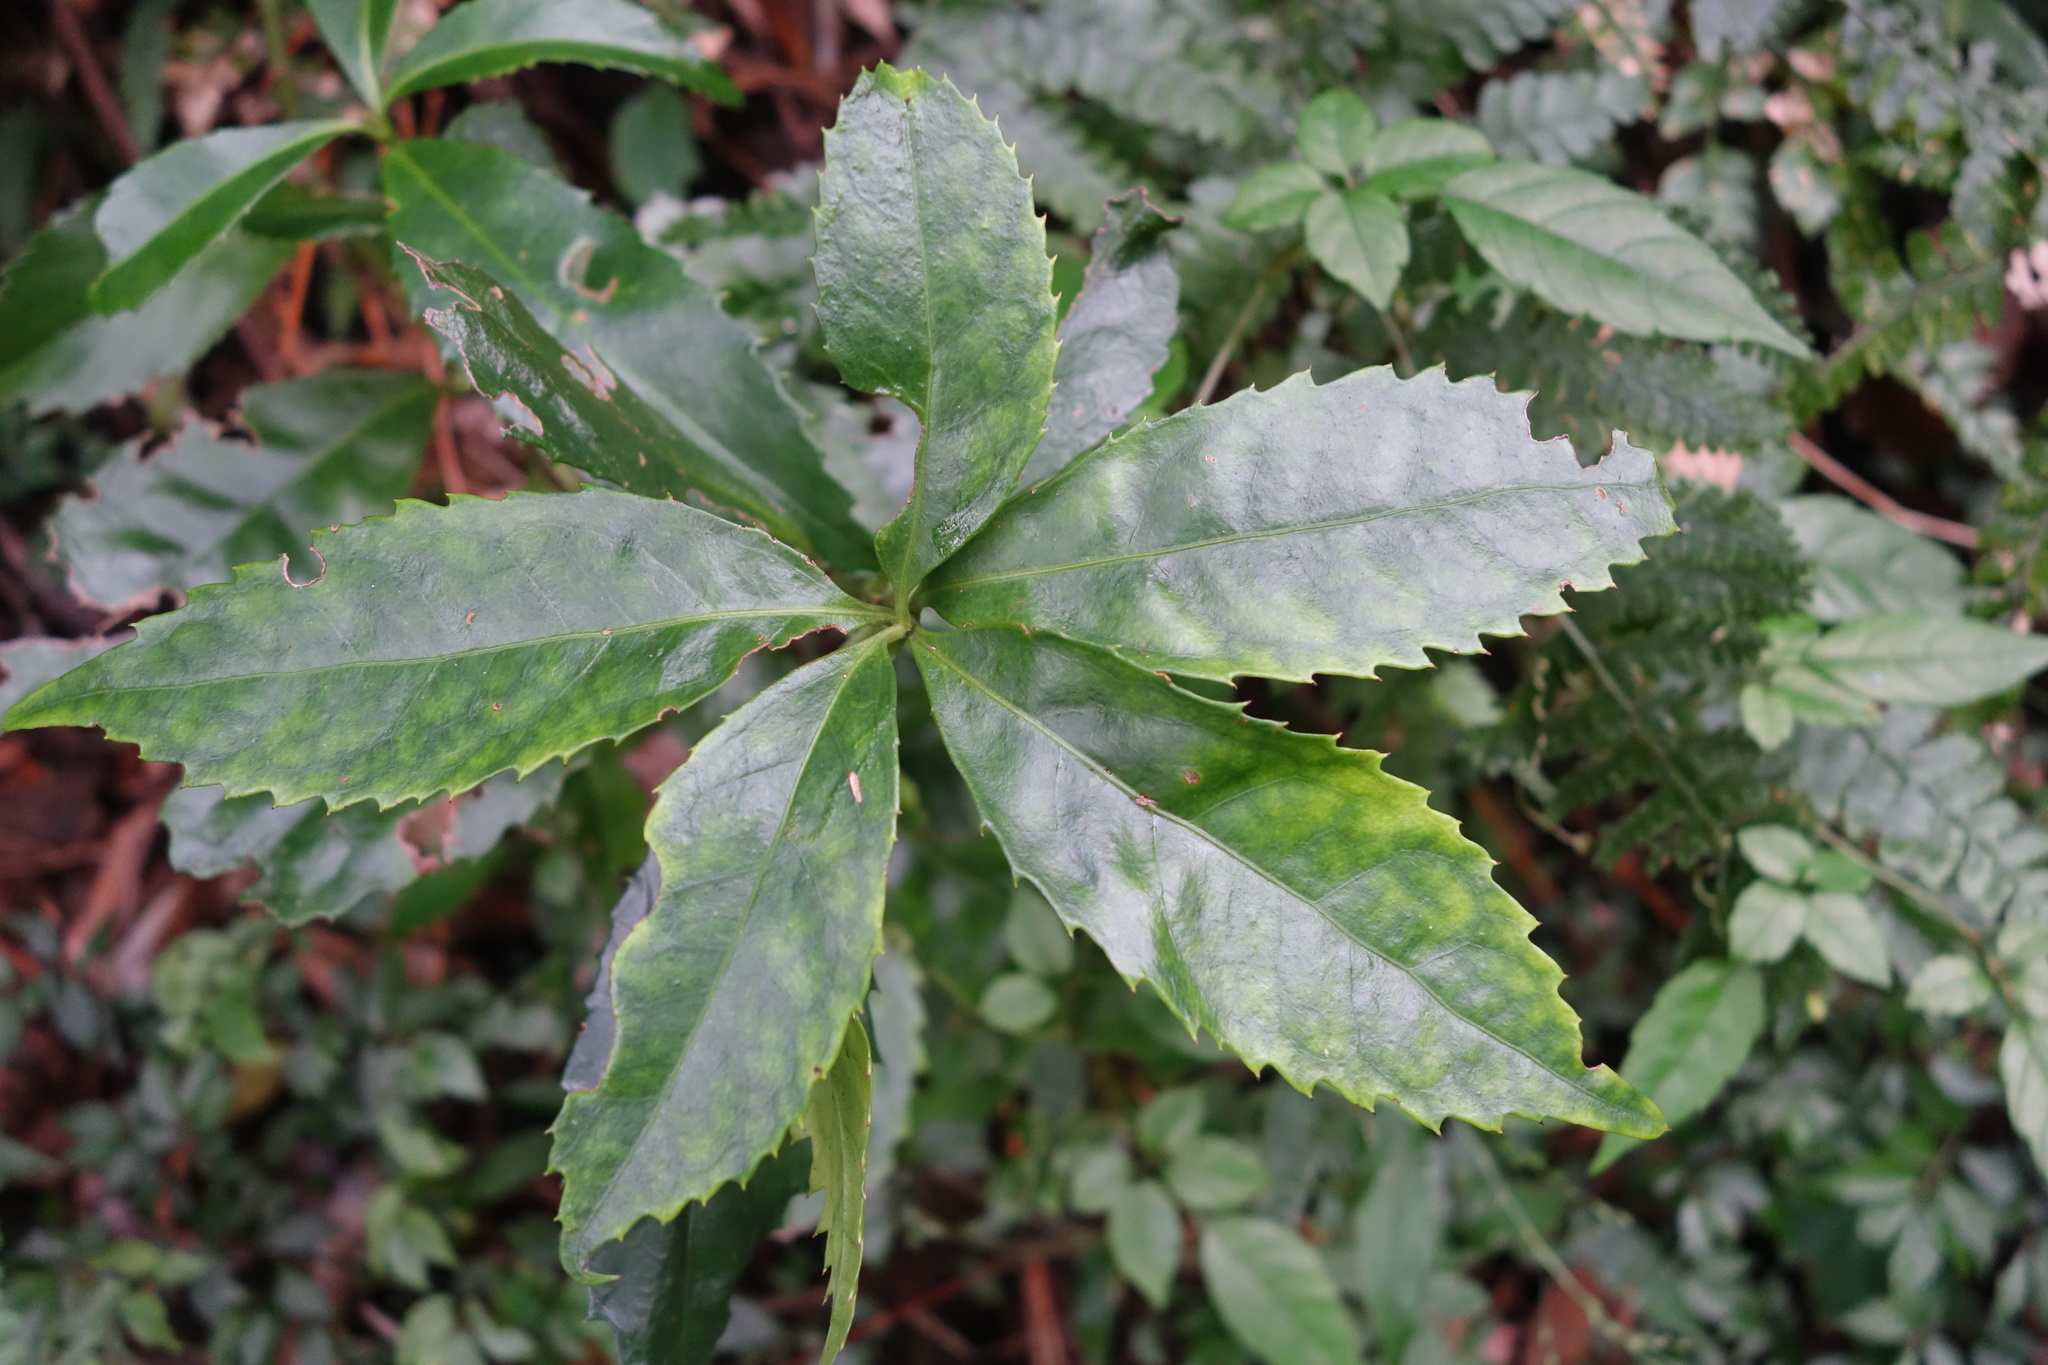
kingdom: Plantae
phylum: Tracheophyta
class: Magnoliopsida
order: Chloranthales
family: Chloranthaceae
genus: Sarcandra
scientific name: Sarcandra glabra
